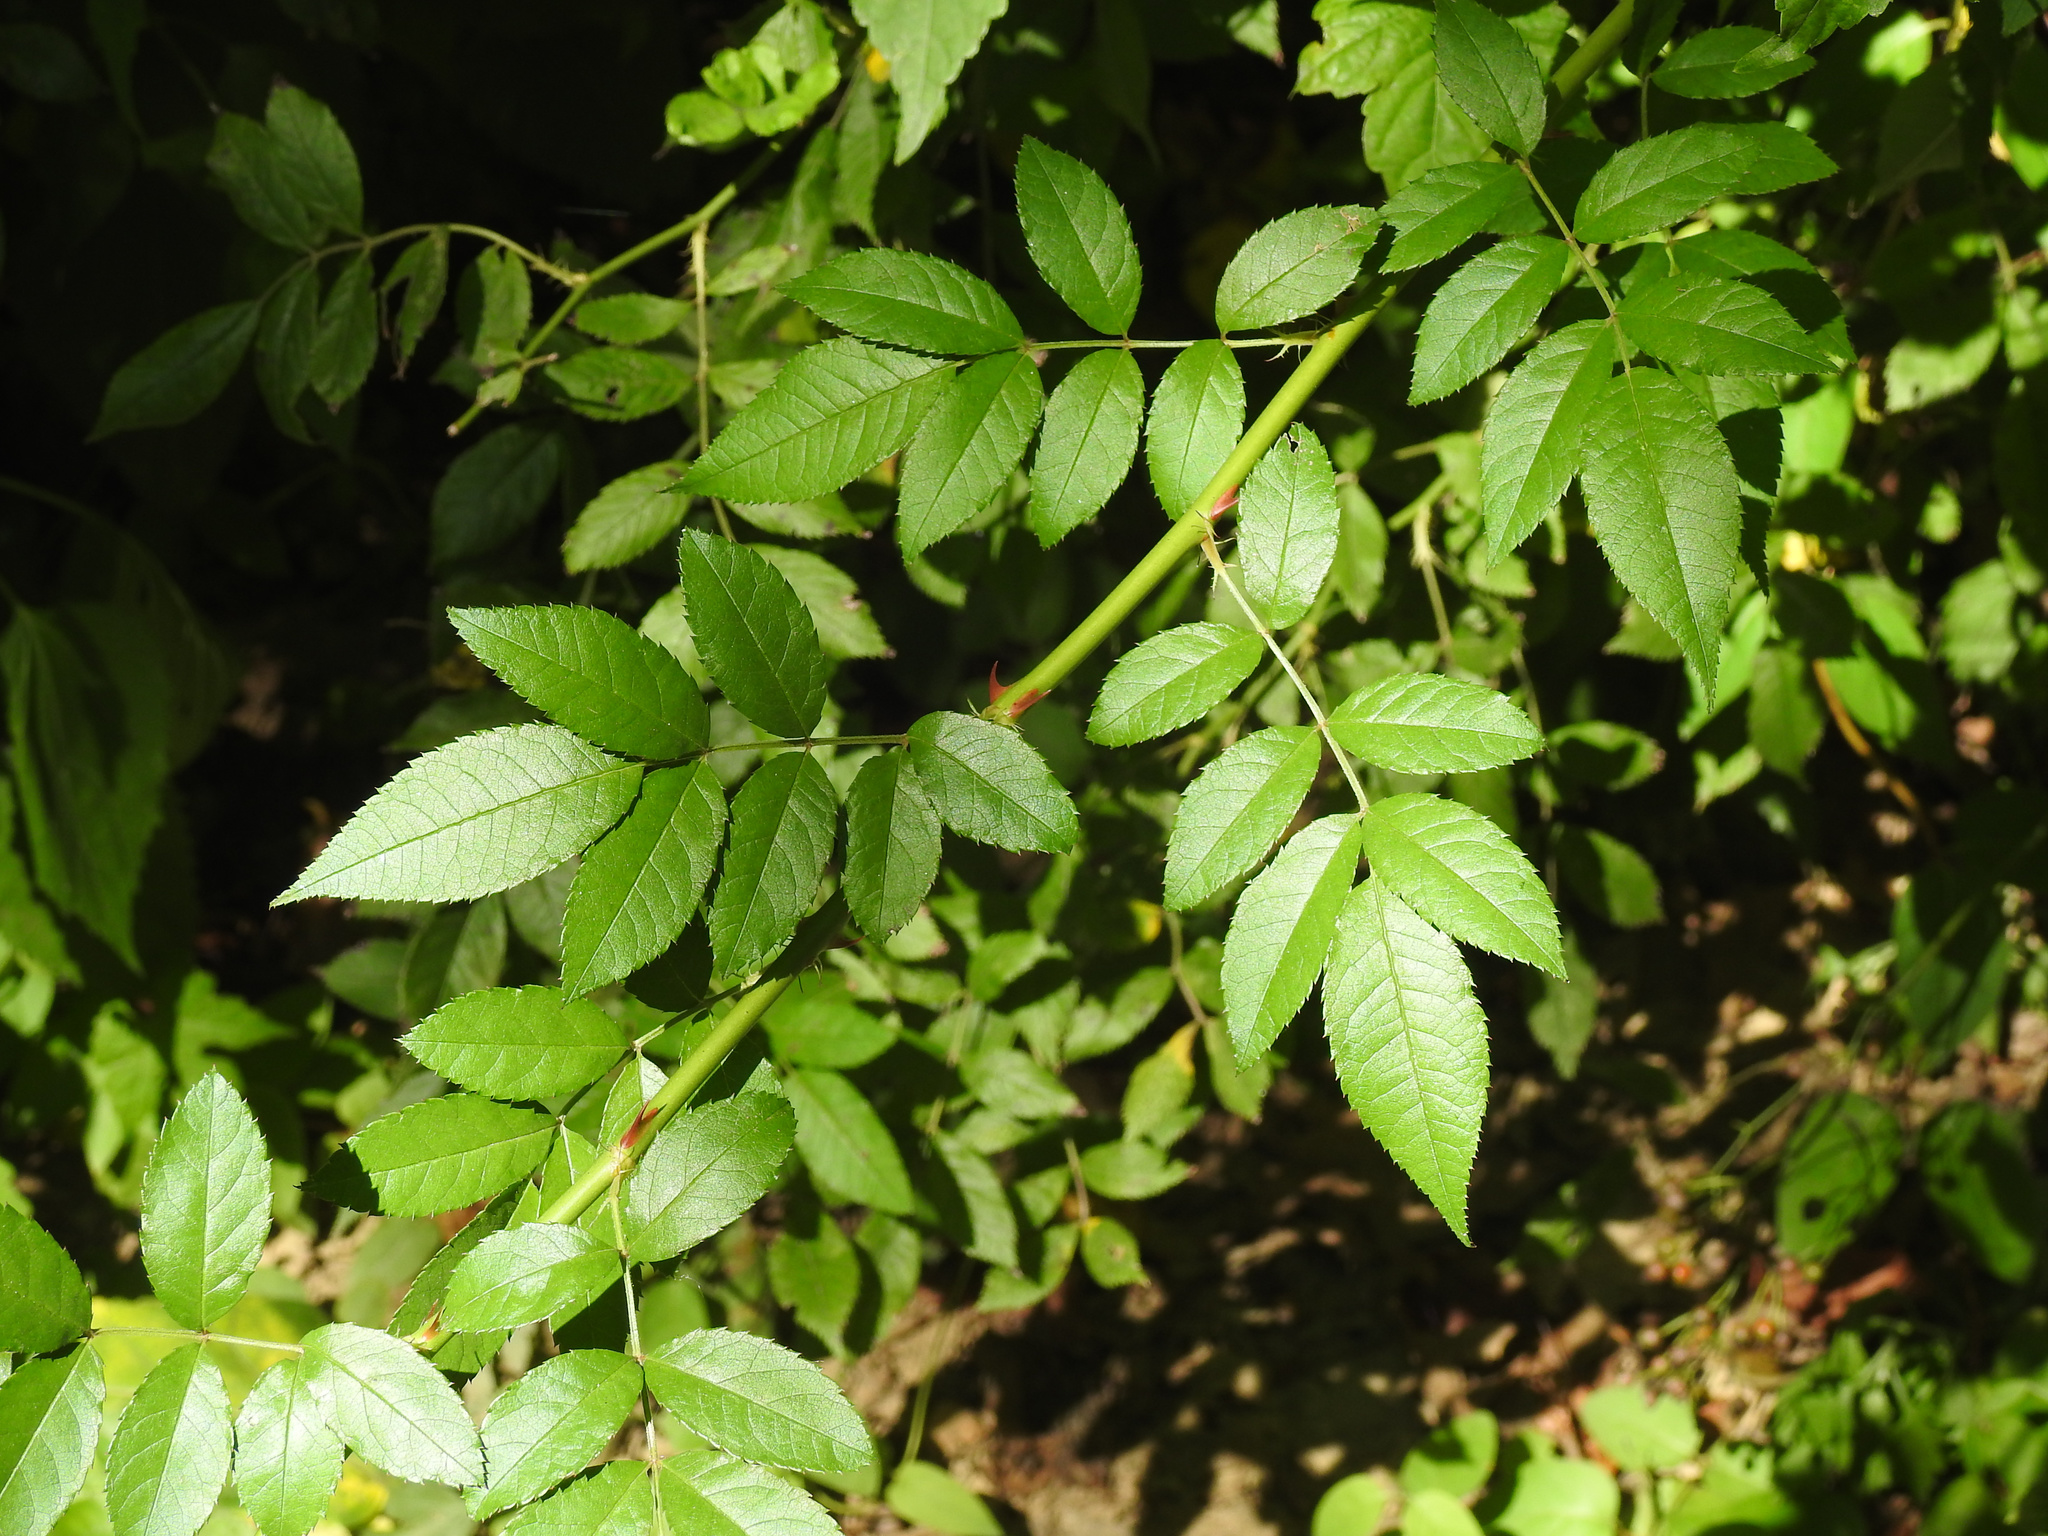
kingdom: Plantae
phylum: Tracheophyta
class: Magnoliopsida
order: Rosales
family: Rosaceae
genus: Rosa
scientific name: Rosa multiflora
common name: Multiflora rose
